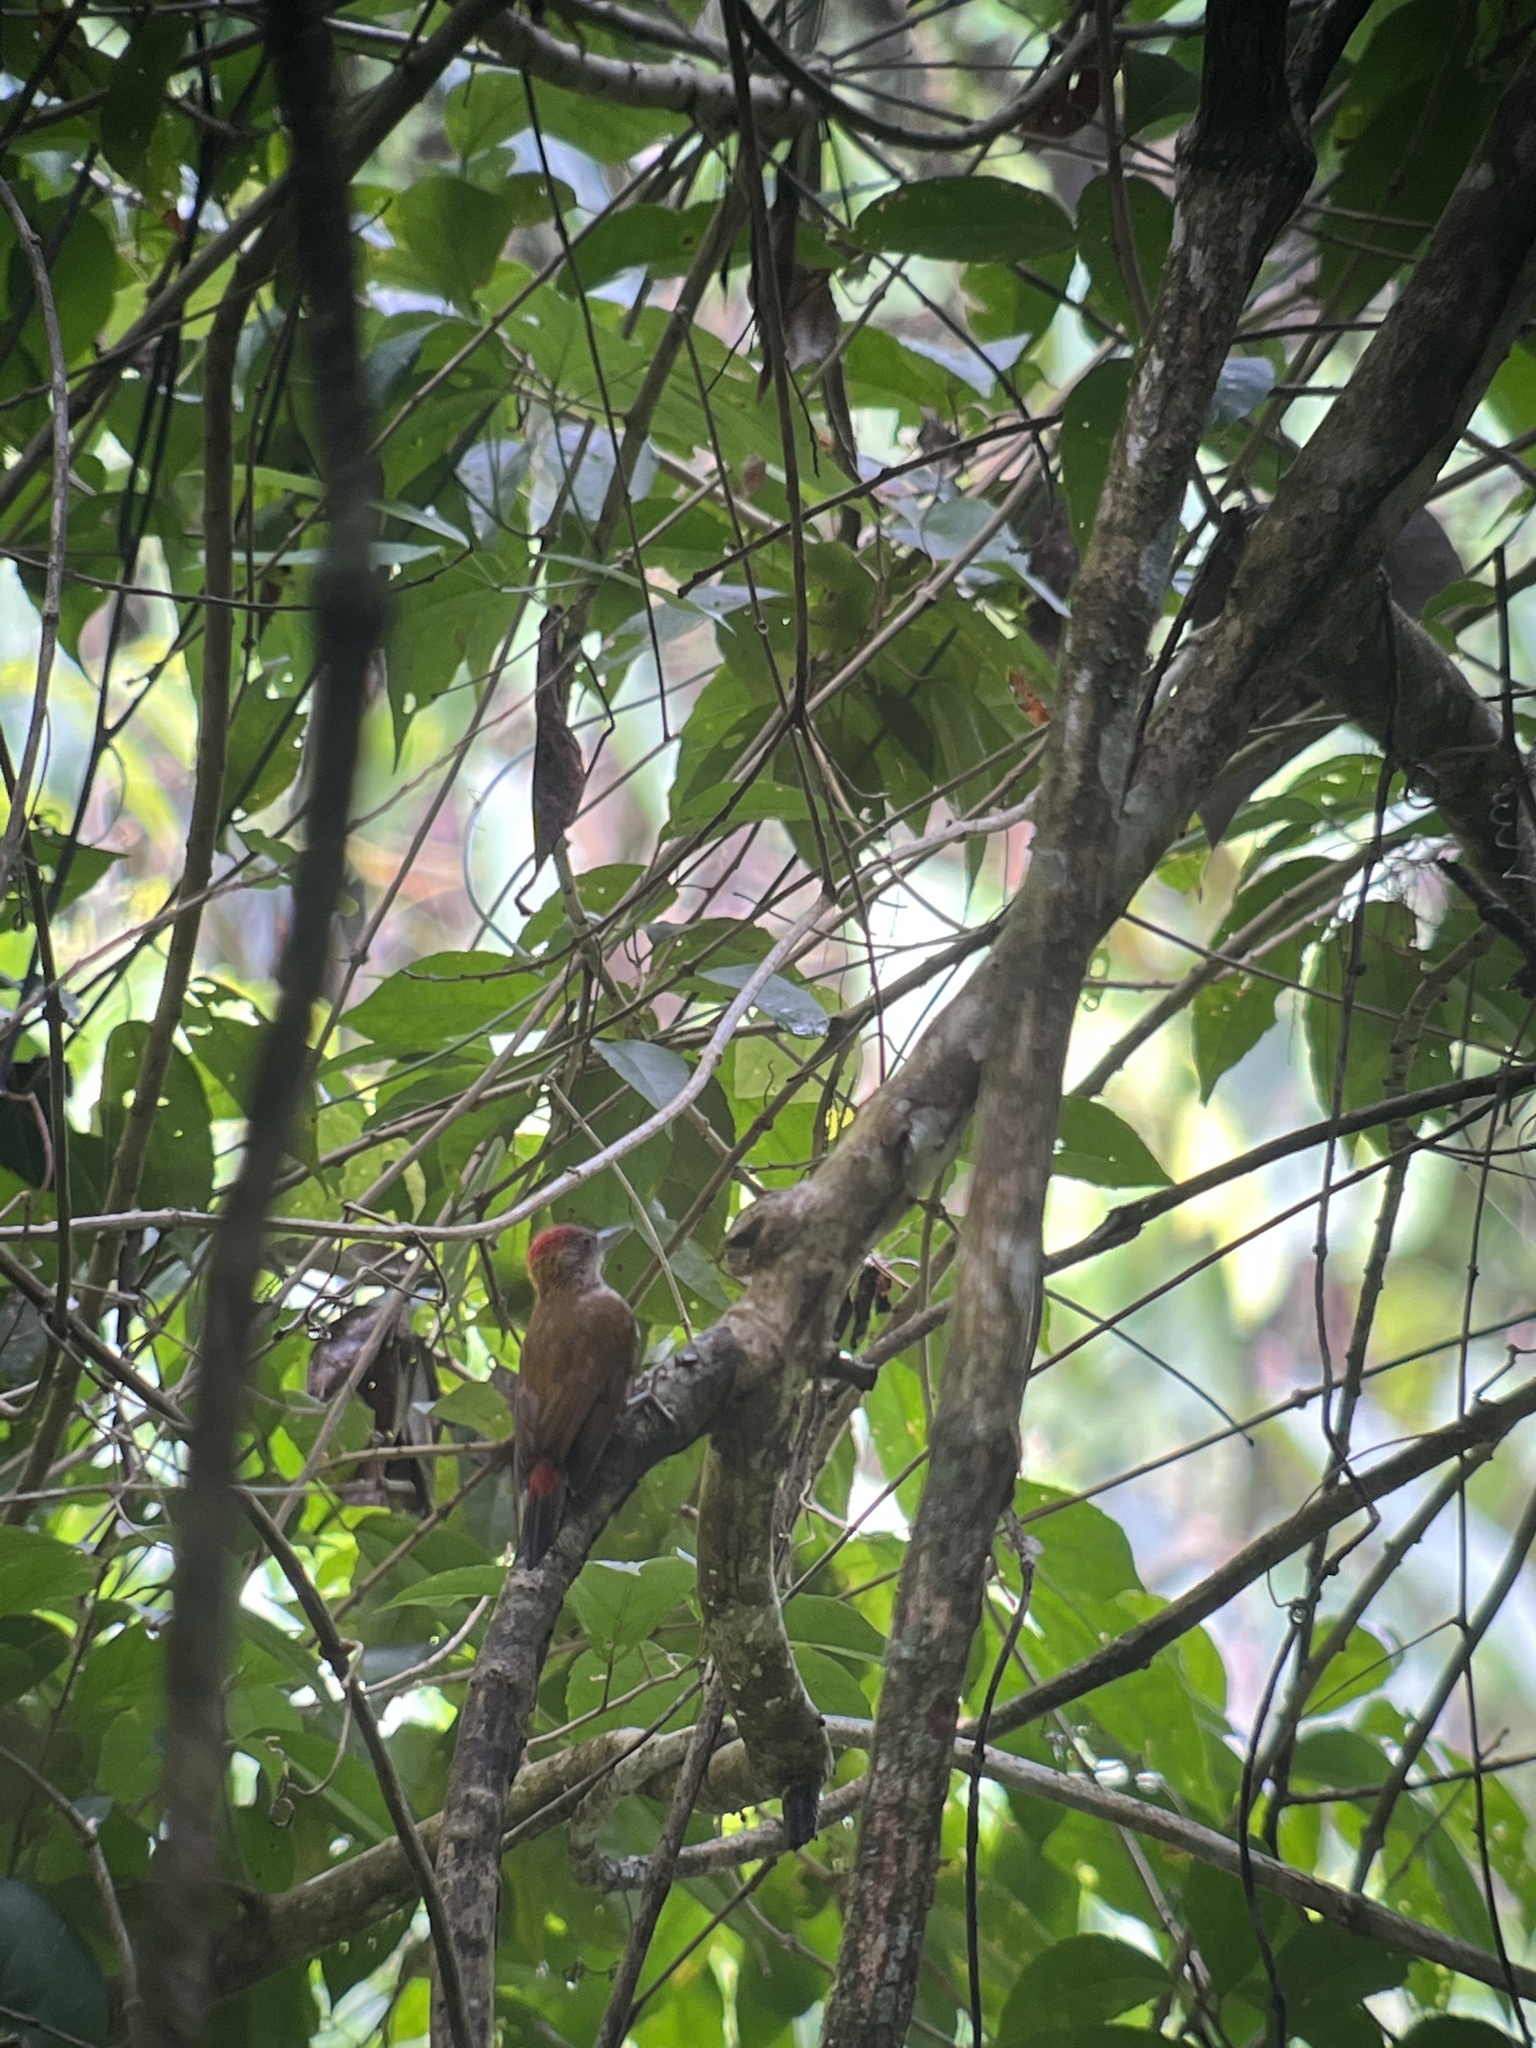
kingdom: Animalia
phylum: Chordata
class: Aves
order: Piciformes
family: Picidae
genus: Veniliornis
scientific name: Veniliornis kirkii
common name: Red-rumped woodpecker
